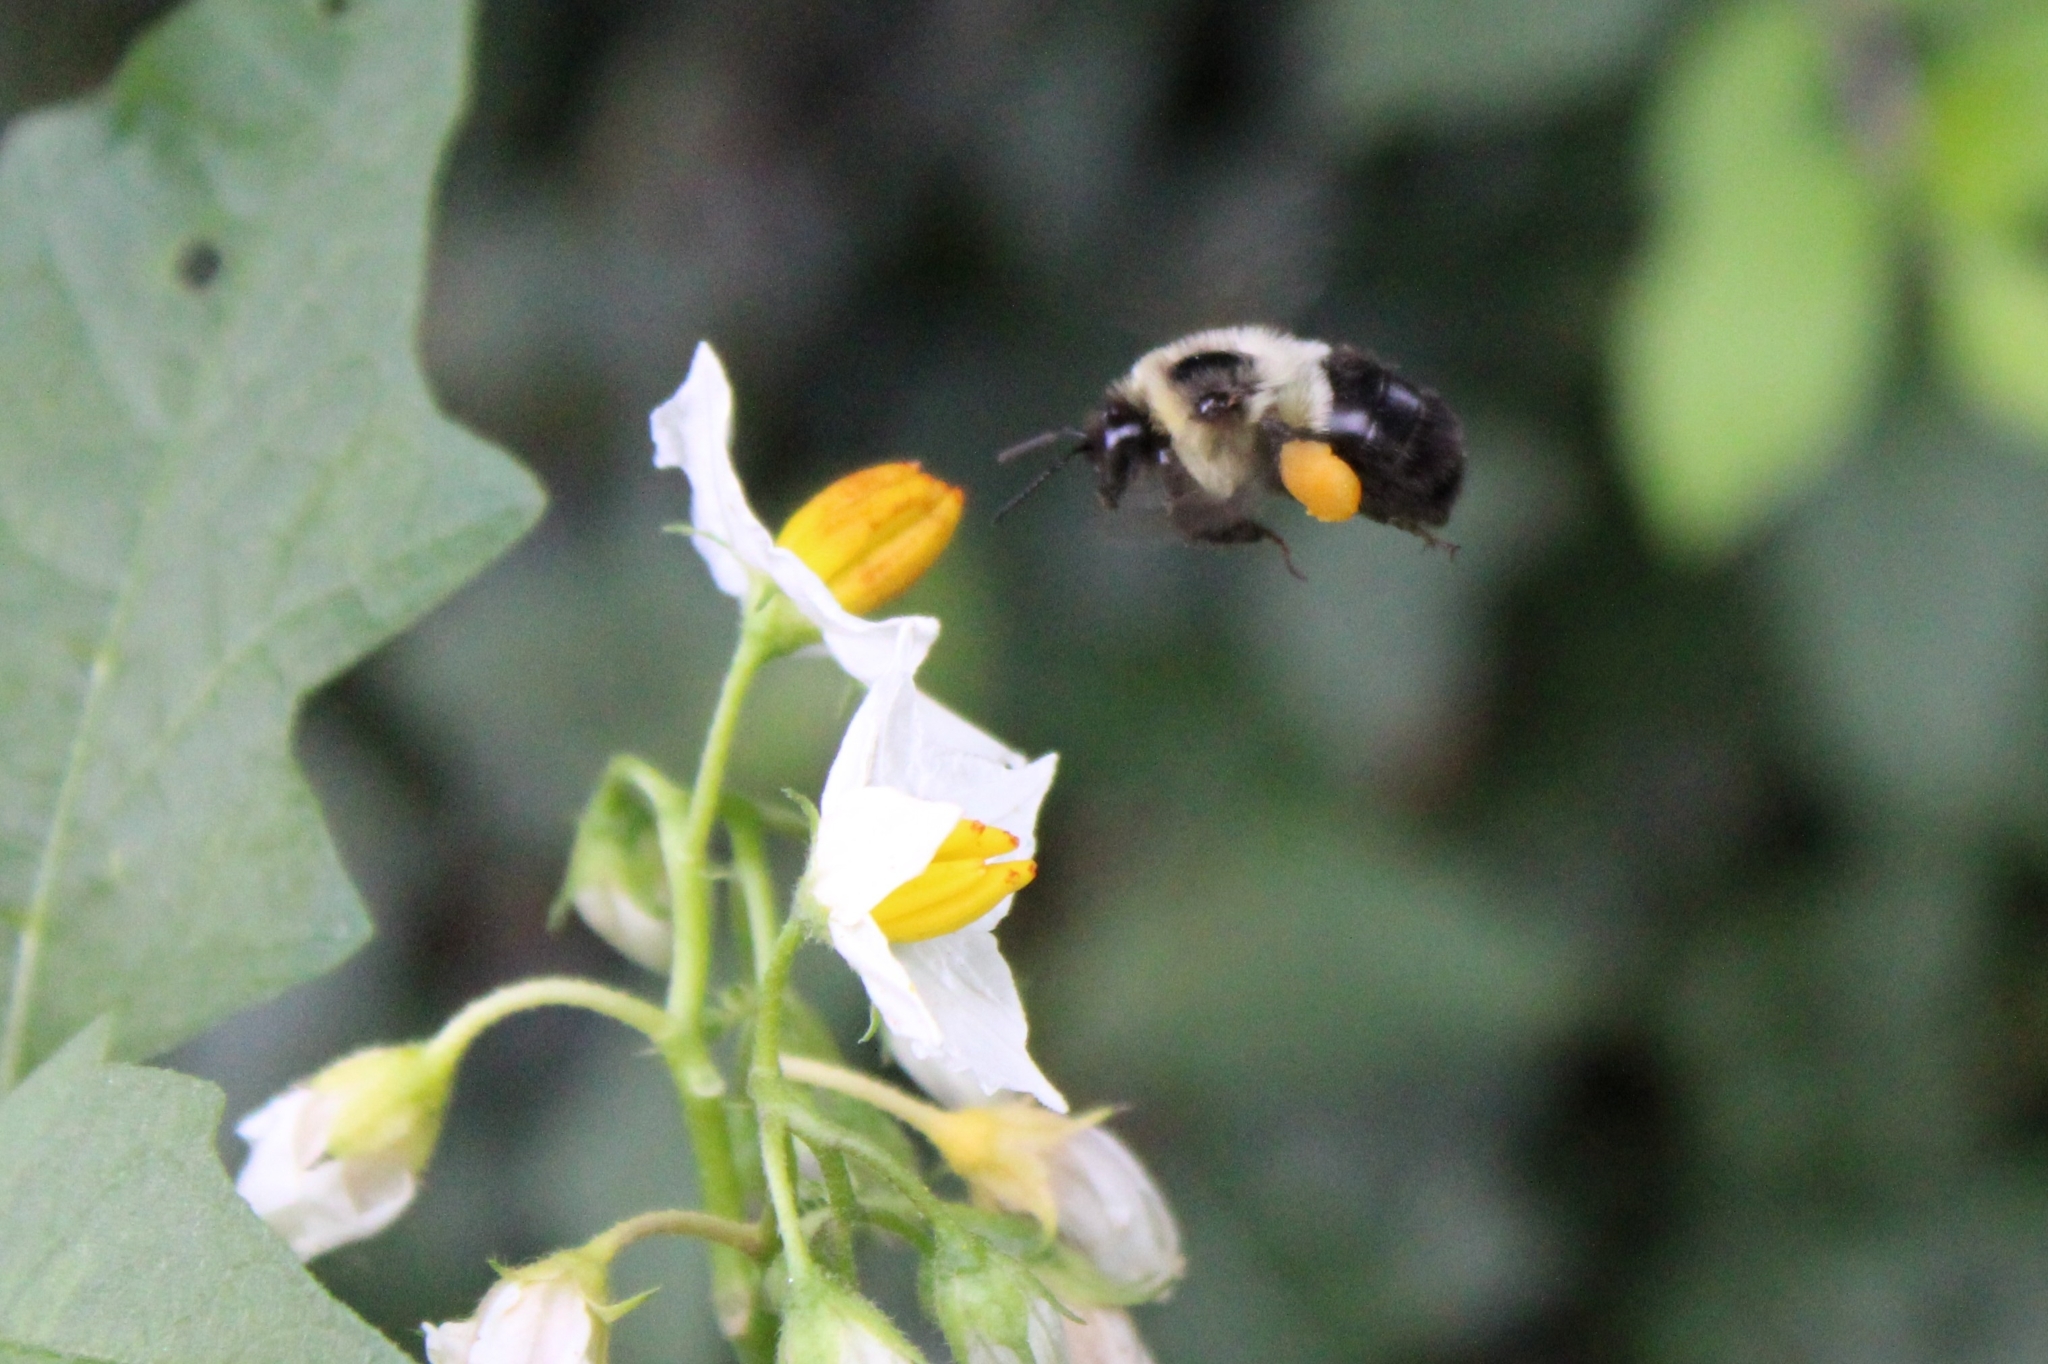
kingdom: Animalia
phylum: Arthropoda
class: Insecta
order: Hymenoptera
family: Apidae
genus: Bombus
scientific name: Bombus impatiens
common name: Common eastern bumble bee
